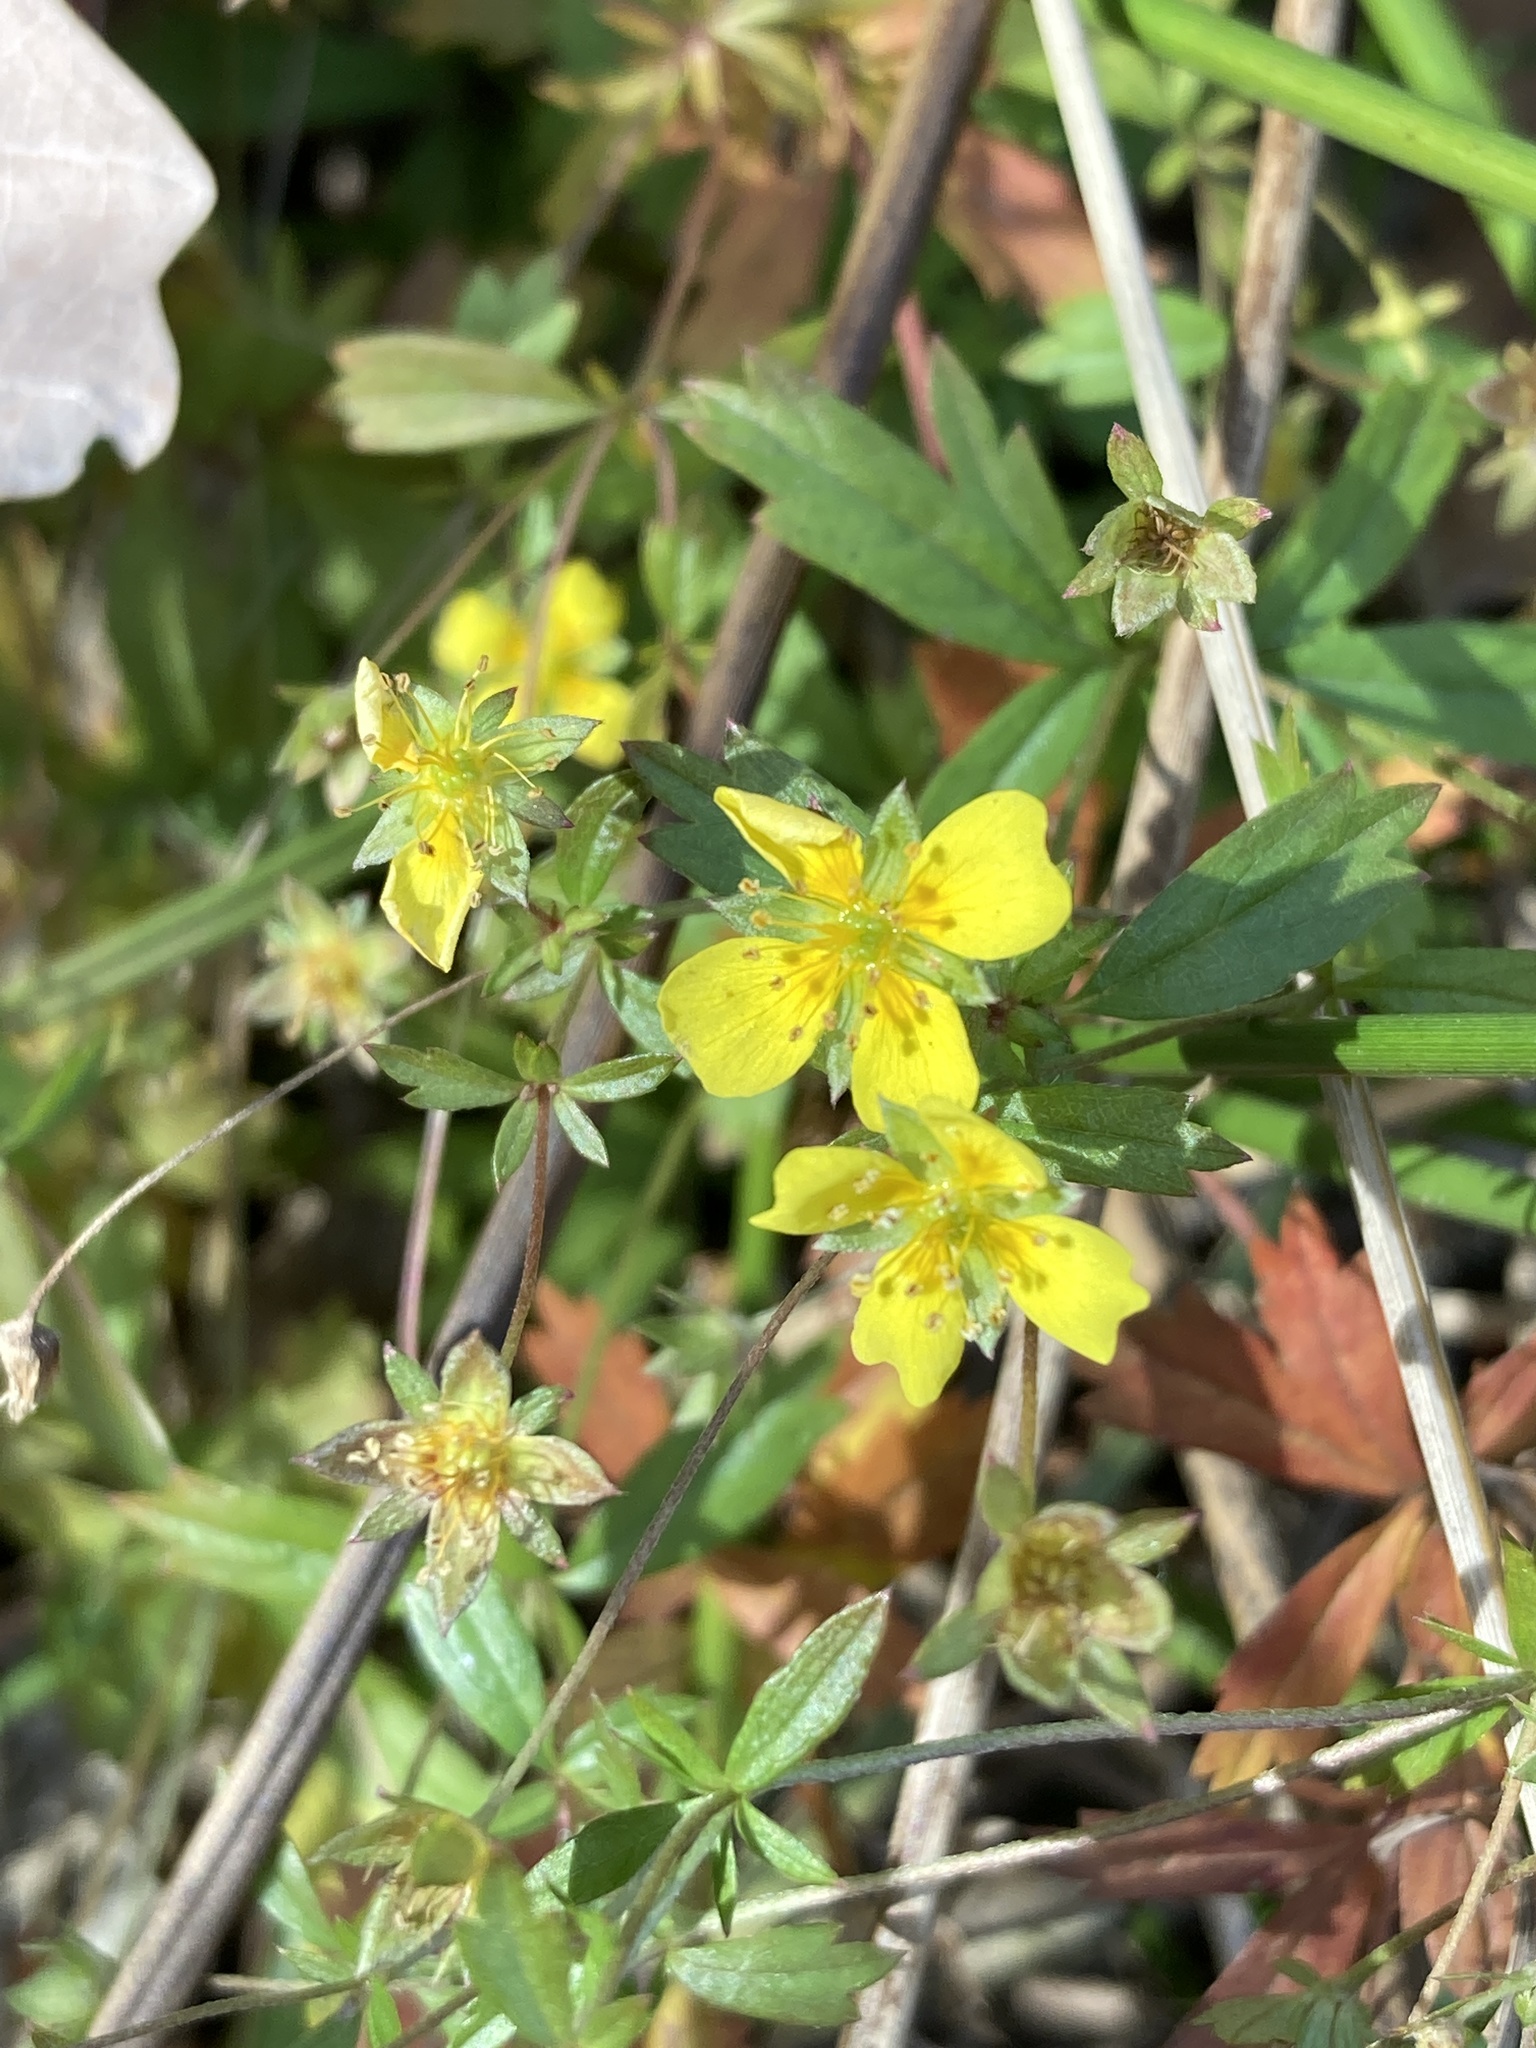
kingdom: Plantae
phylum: Tracheophyta
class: Magnoliopsida
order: Rosales
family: Rosaceae
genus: Potentilla
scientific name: Potentilla erecta
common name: Tormentil
